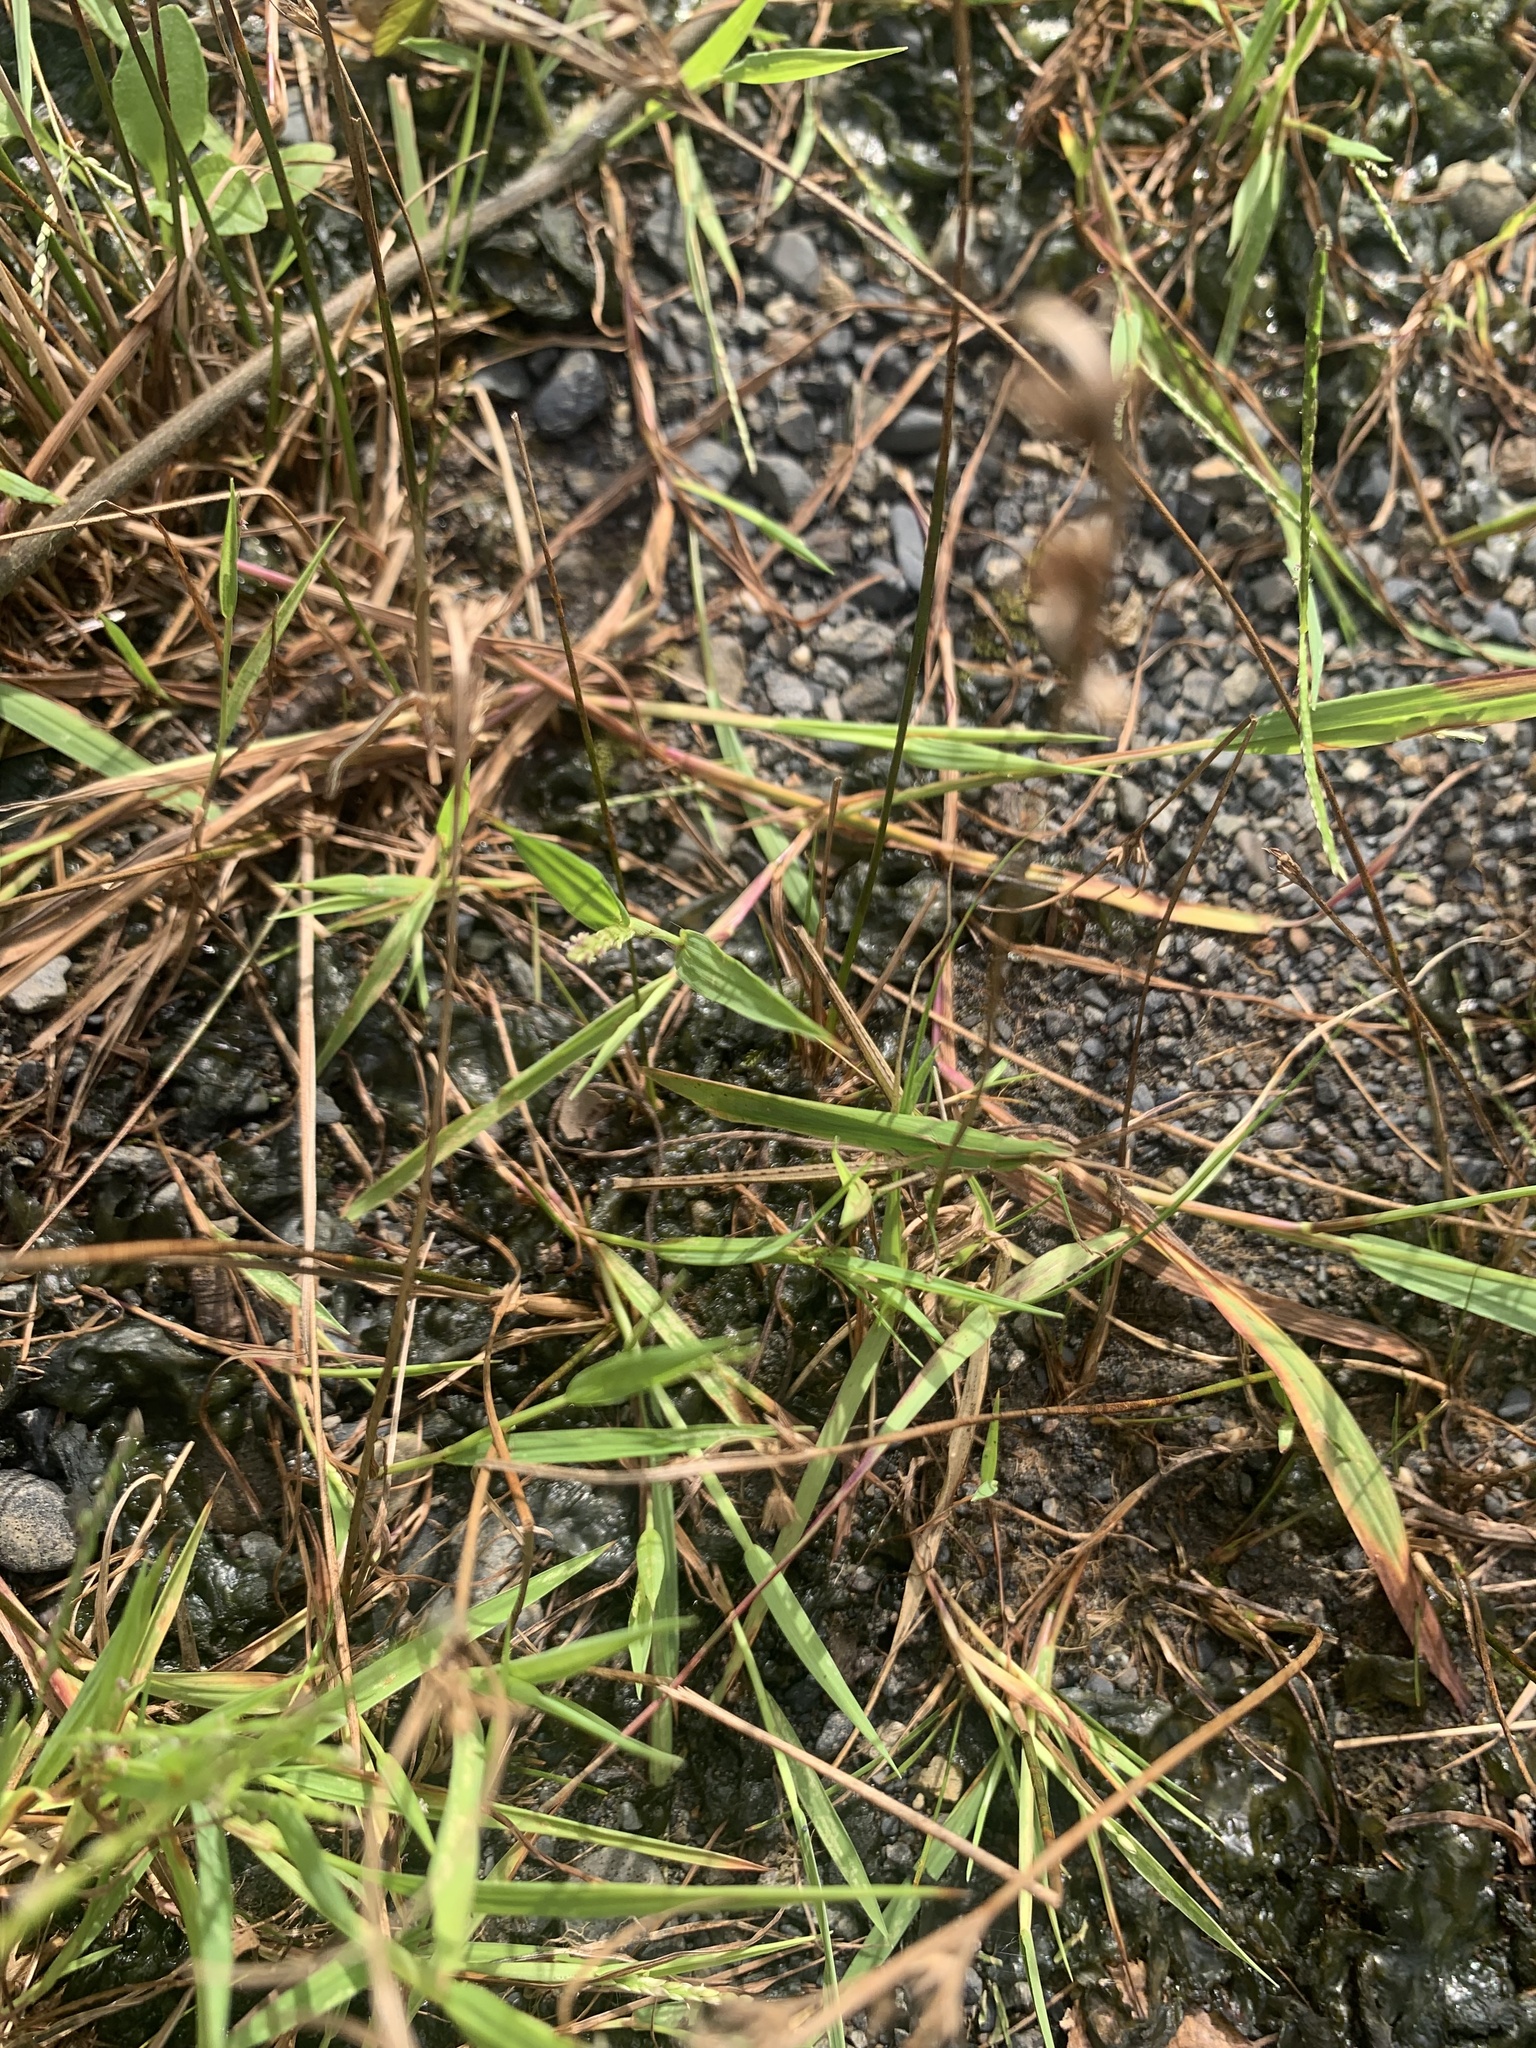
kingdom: Animalia
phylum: Arthropoda
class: Insecta
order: Orthoptera
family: Acrididae
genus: Acrida
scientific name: Acrida cinerea
